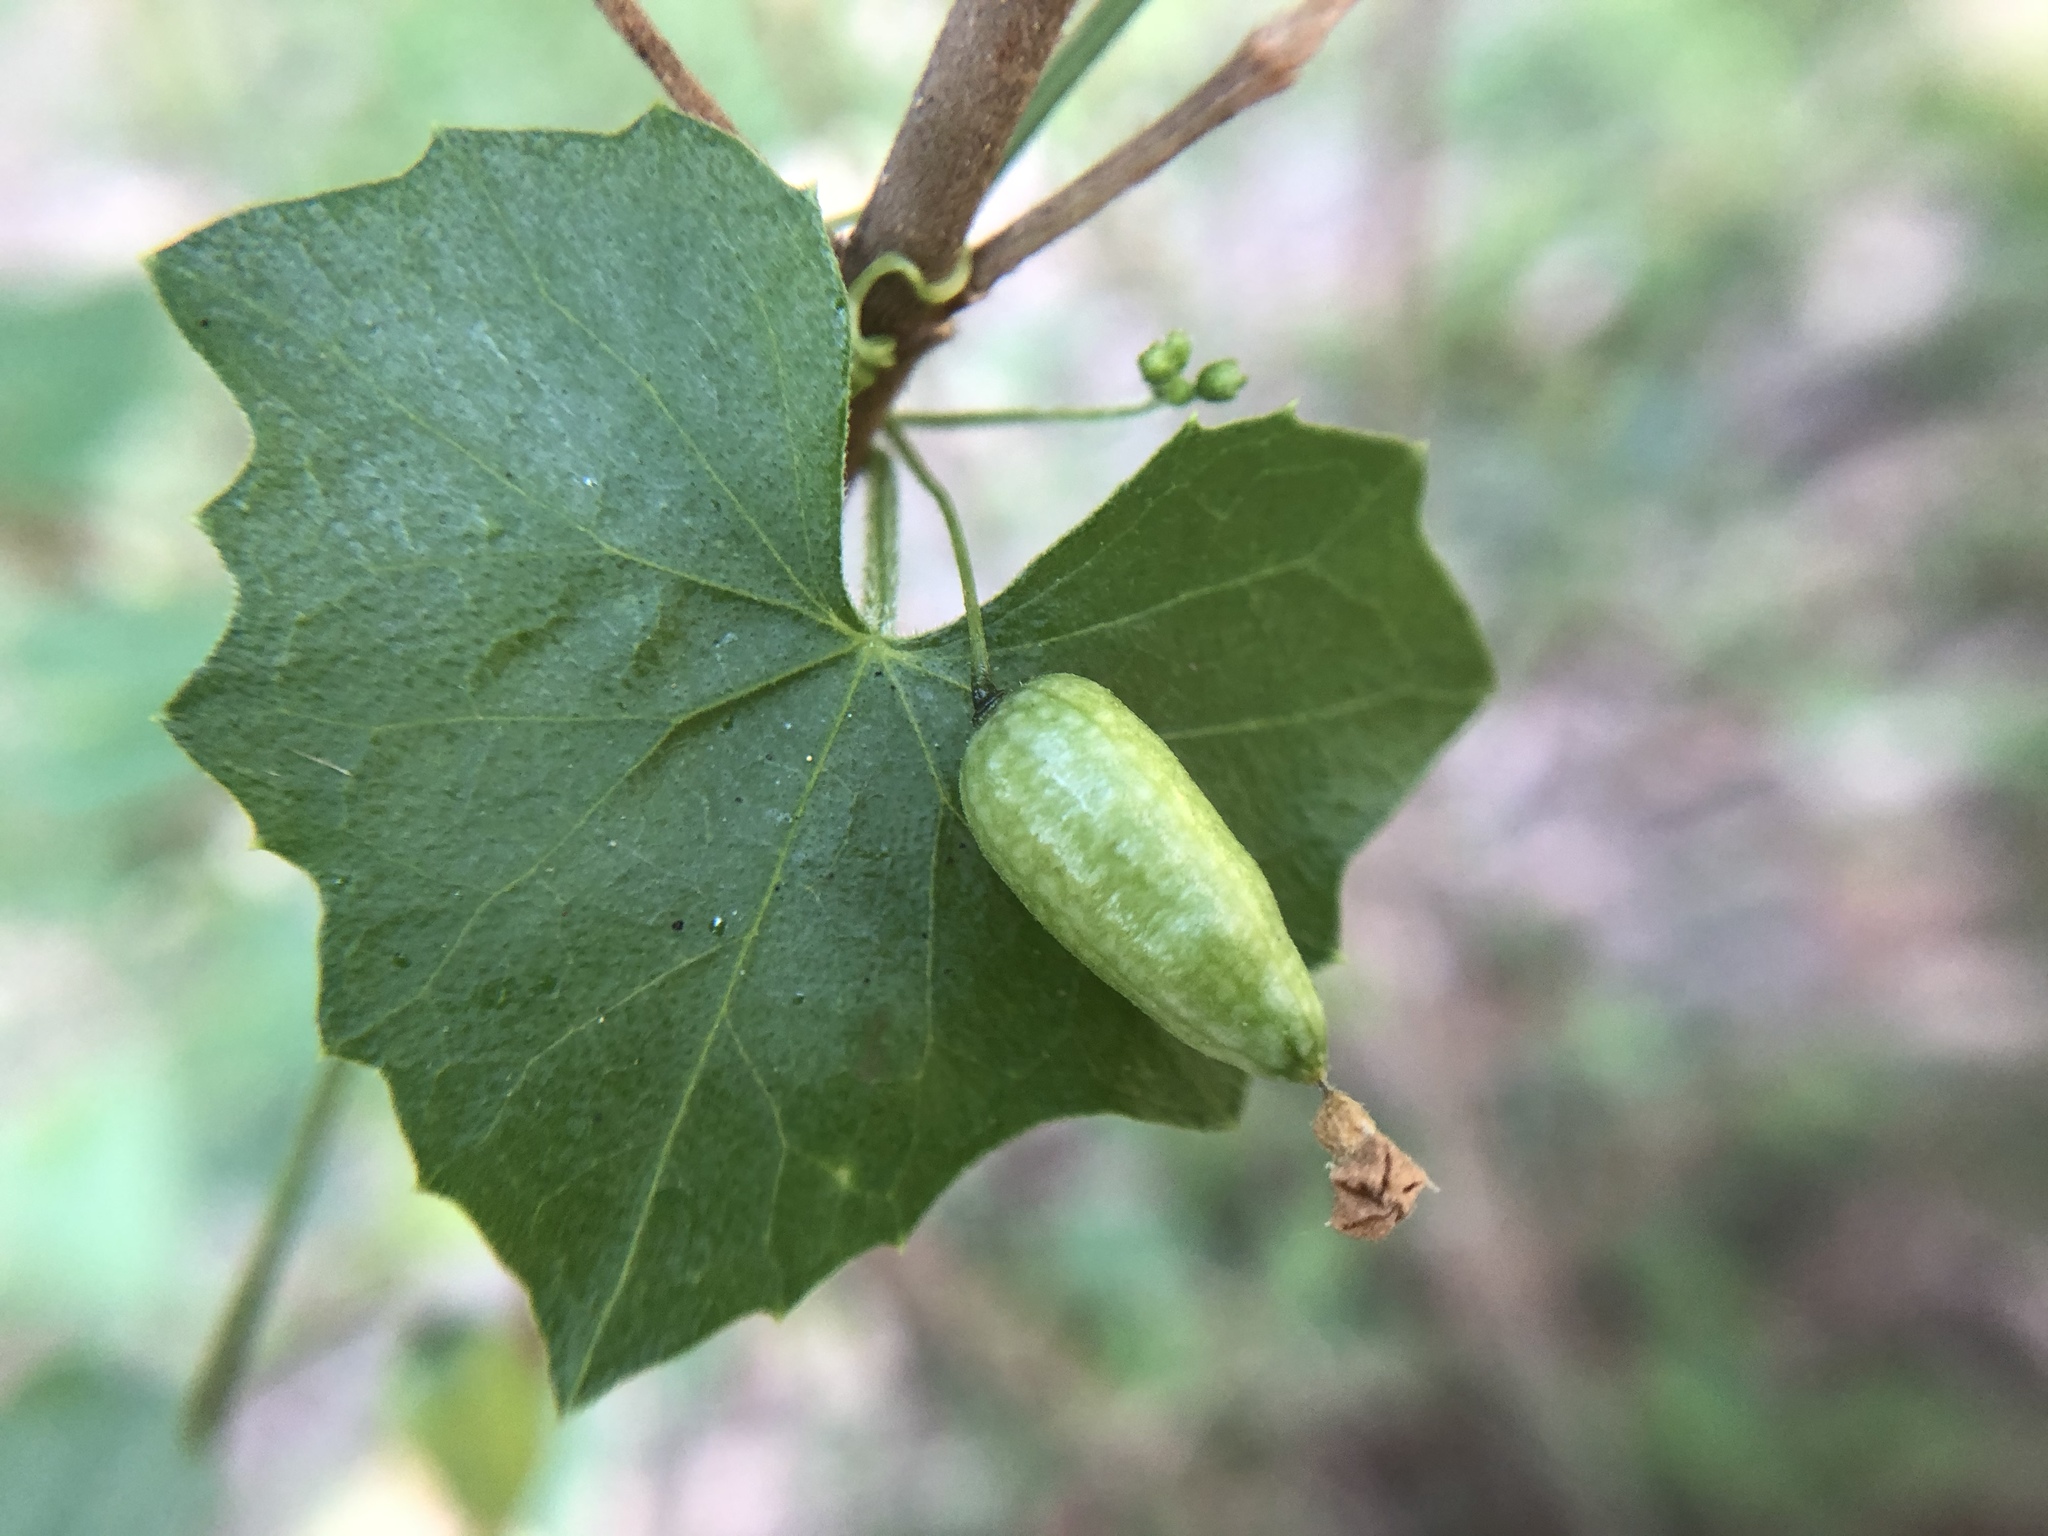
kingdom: Plantae
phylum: Tracheophyta
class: Magnoliopsida
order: Cucurbitales
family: Cucurbitaceae
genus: Melothria
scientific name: Melothria pendula
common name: Creeping-cucumber
